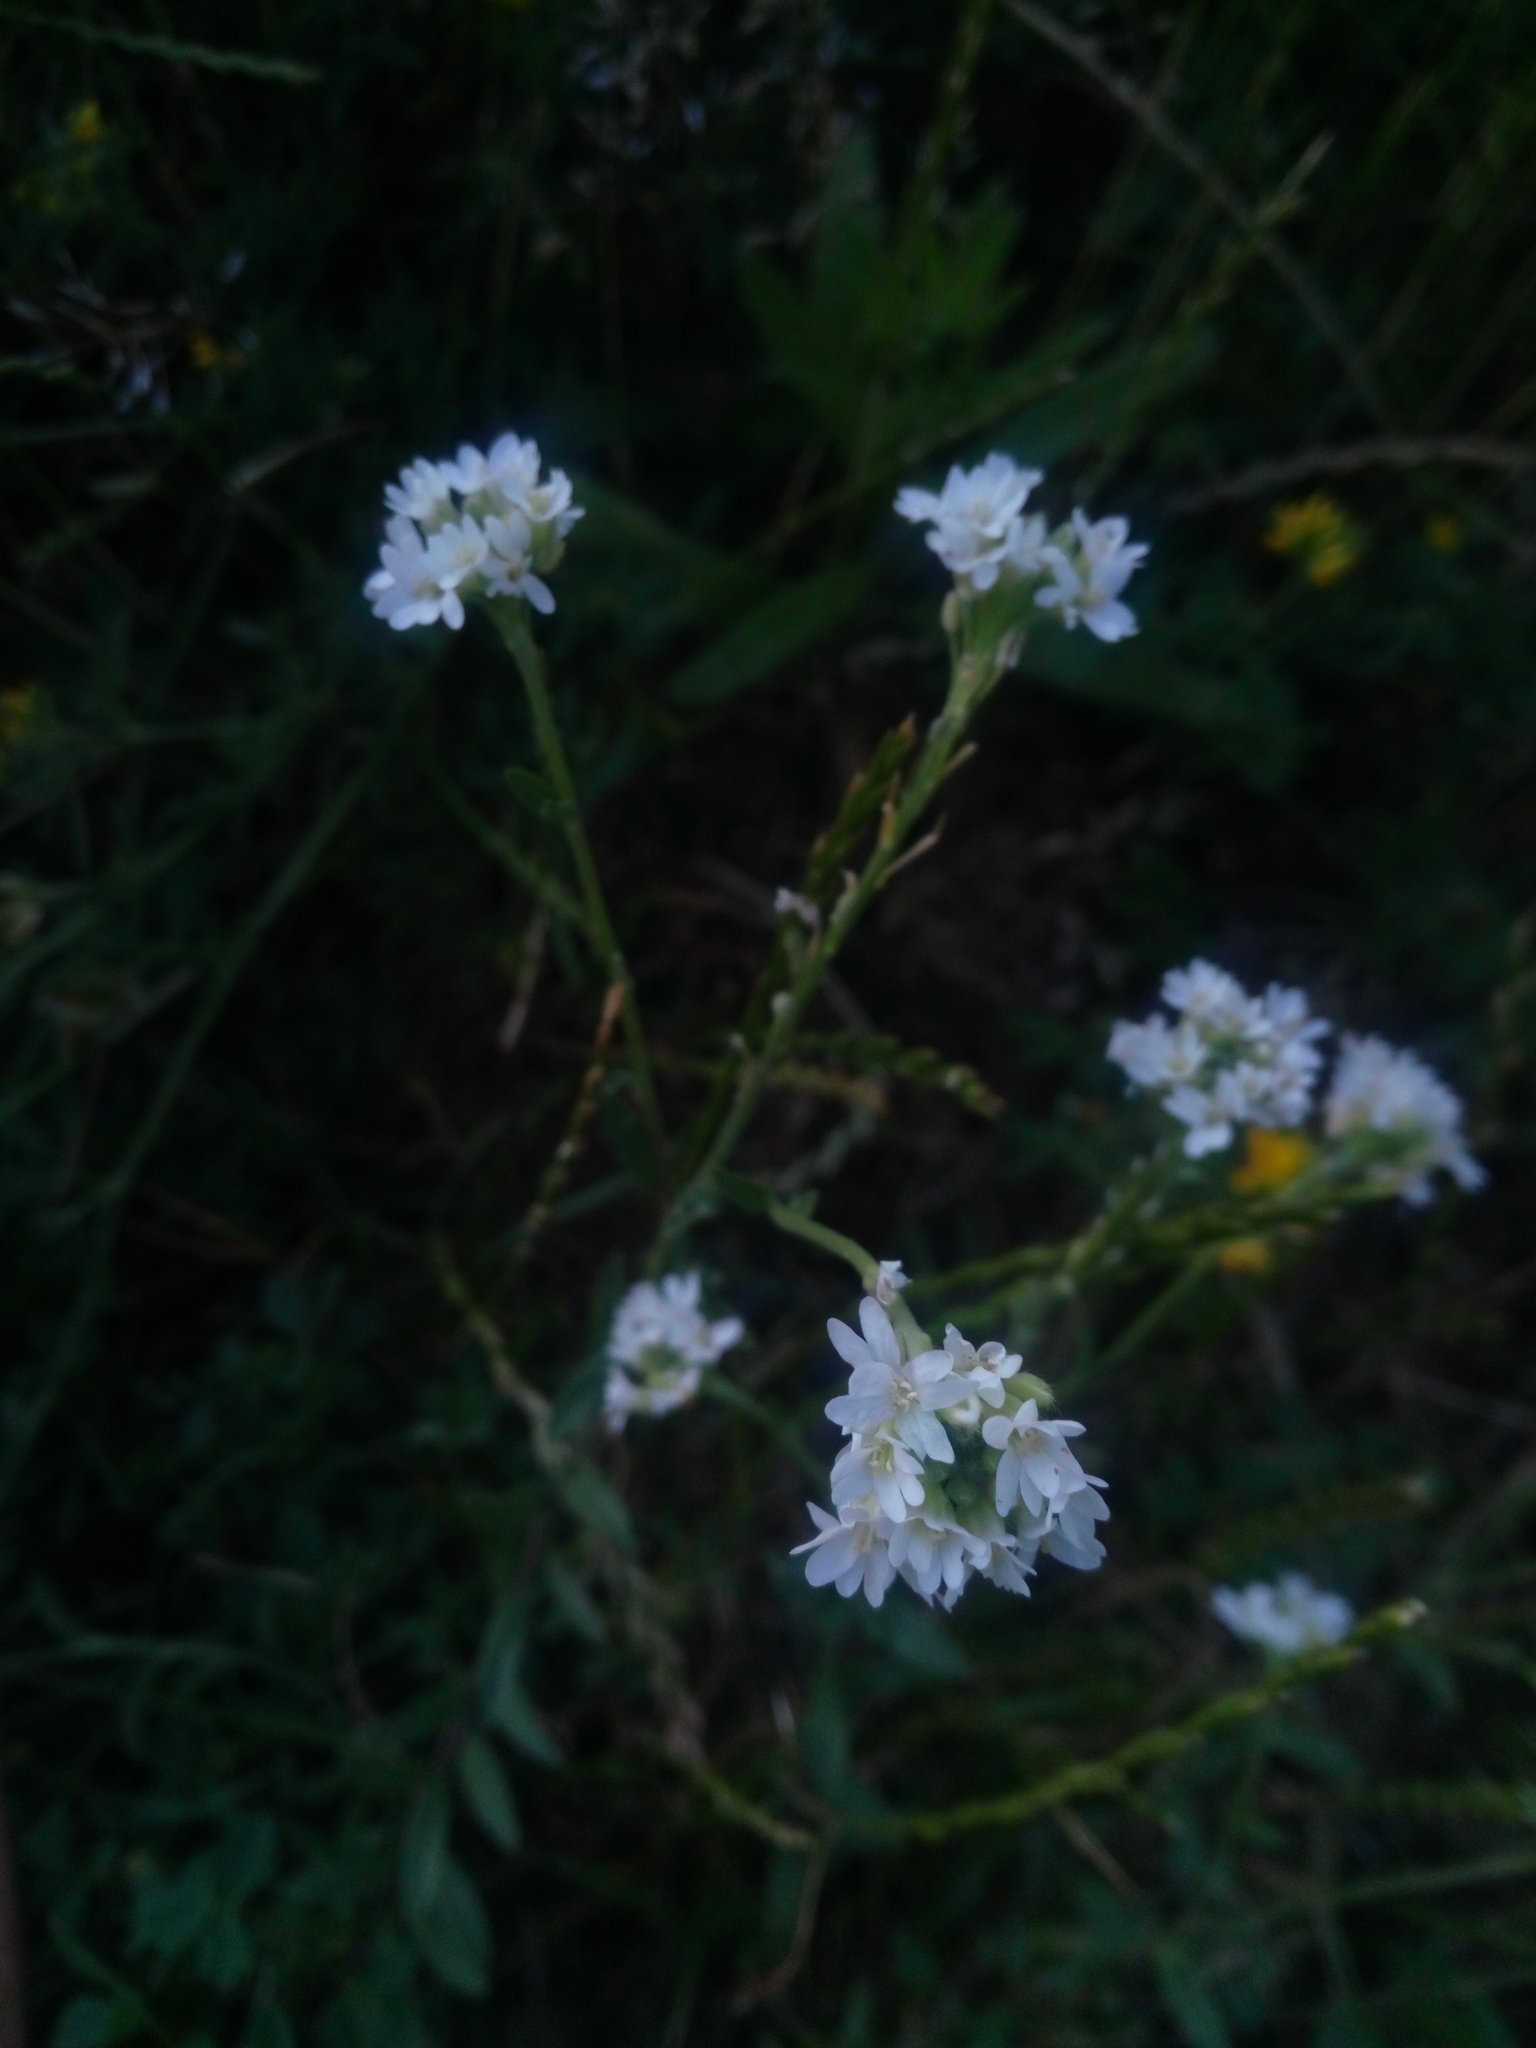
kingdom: Plantae
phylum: Tracheophyta
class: Magnoliopsida
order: Brassicales
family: Brassicaceae
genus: Berteroa
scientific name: Berteroa incana
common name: Hoary alison
